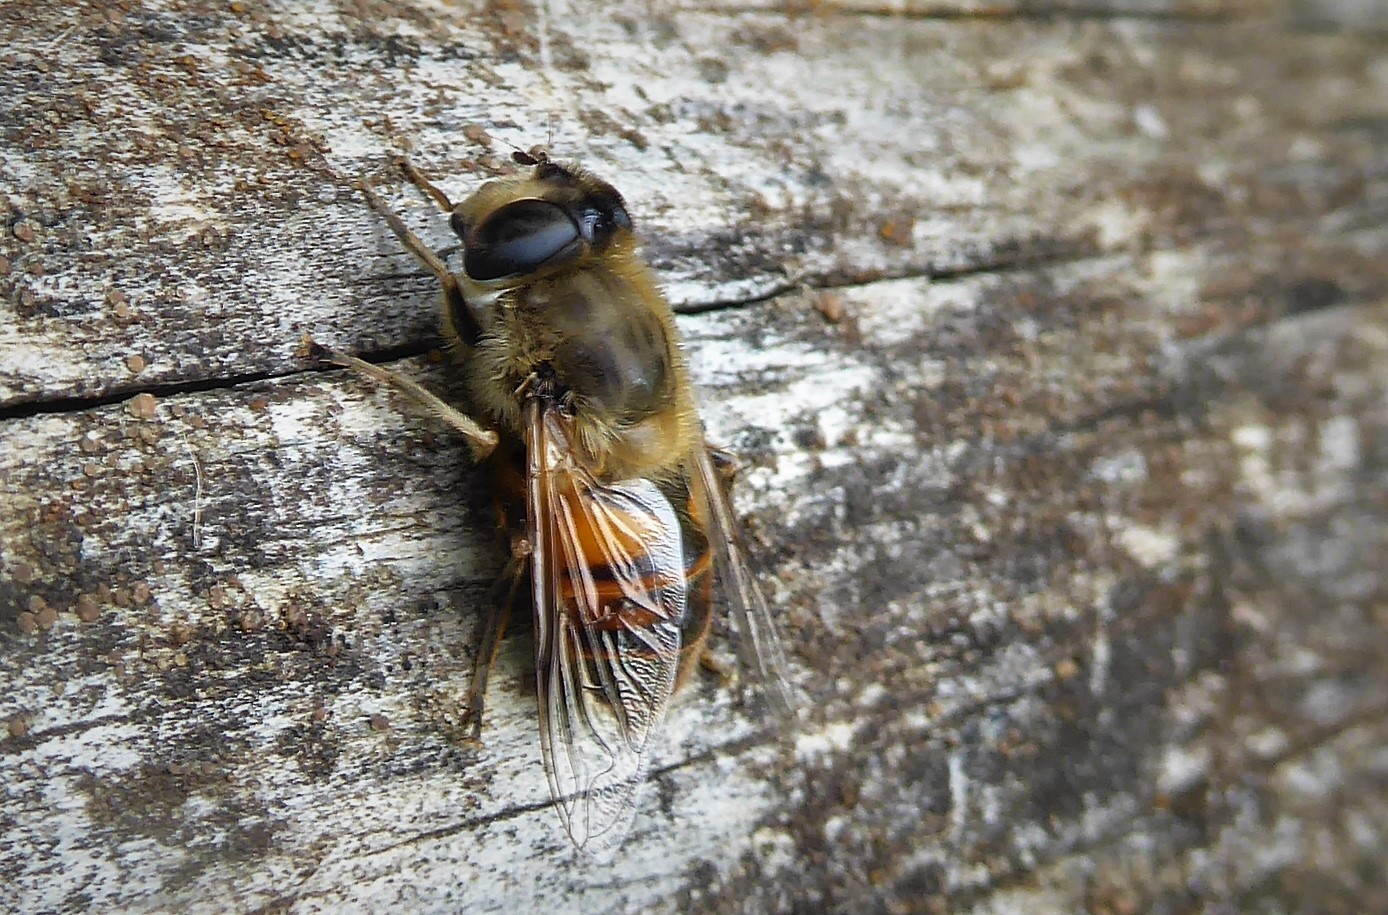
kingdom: Animalia
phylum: Arthropoda
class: Insecta
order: Diptera
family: Syrphidae
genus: Eristalis
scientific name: Eristalis tenax
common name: Drone fly
